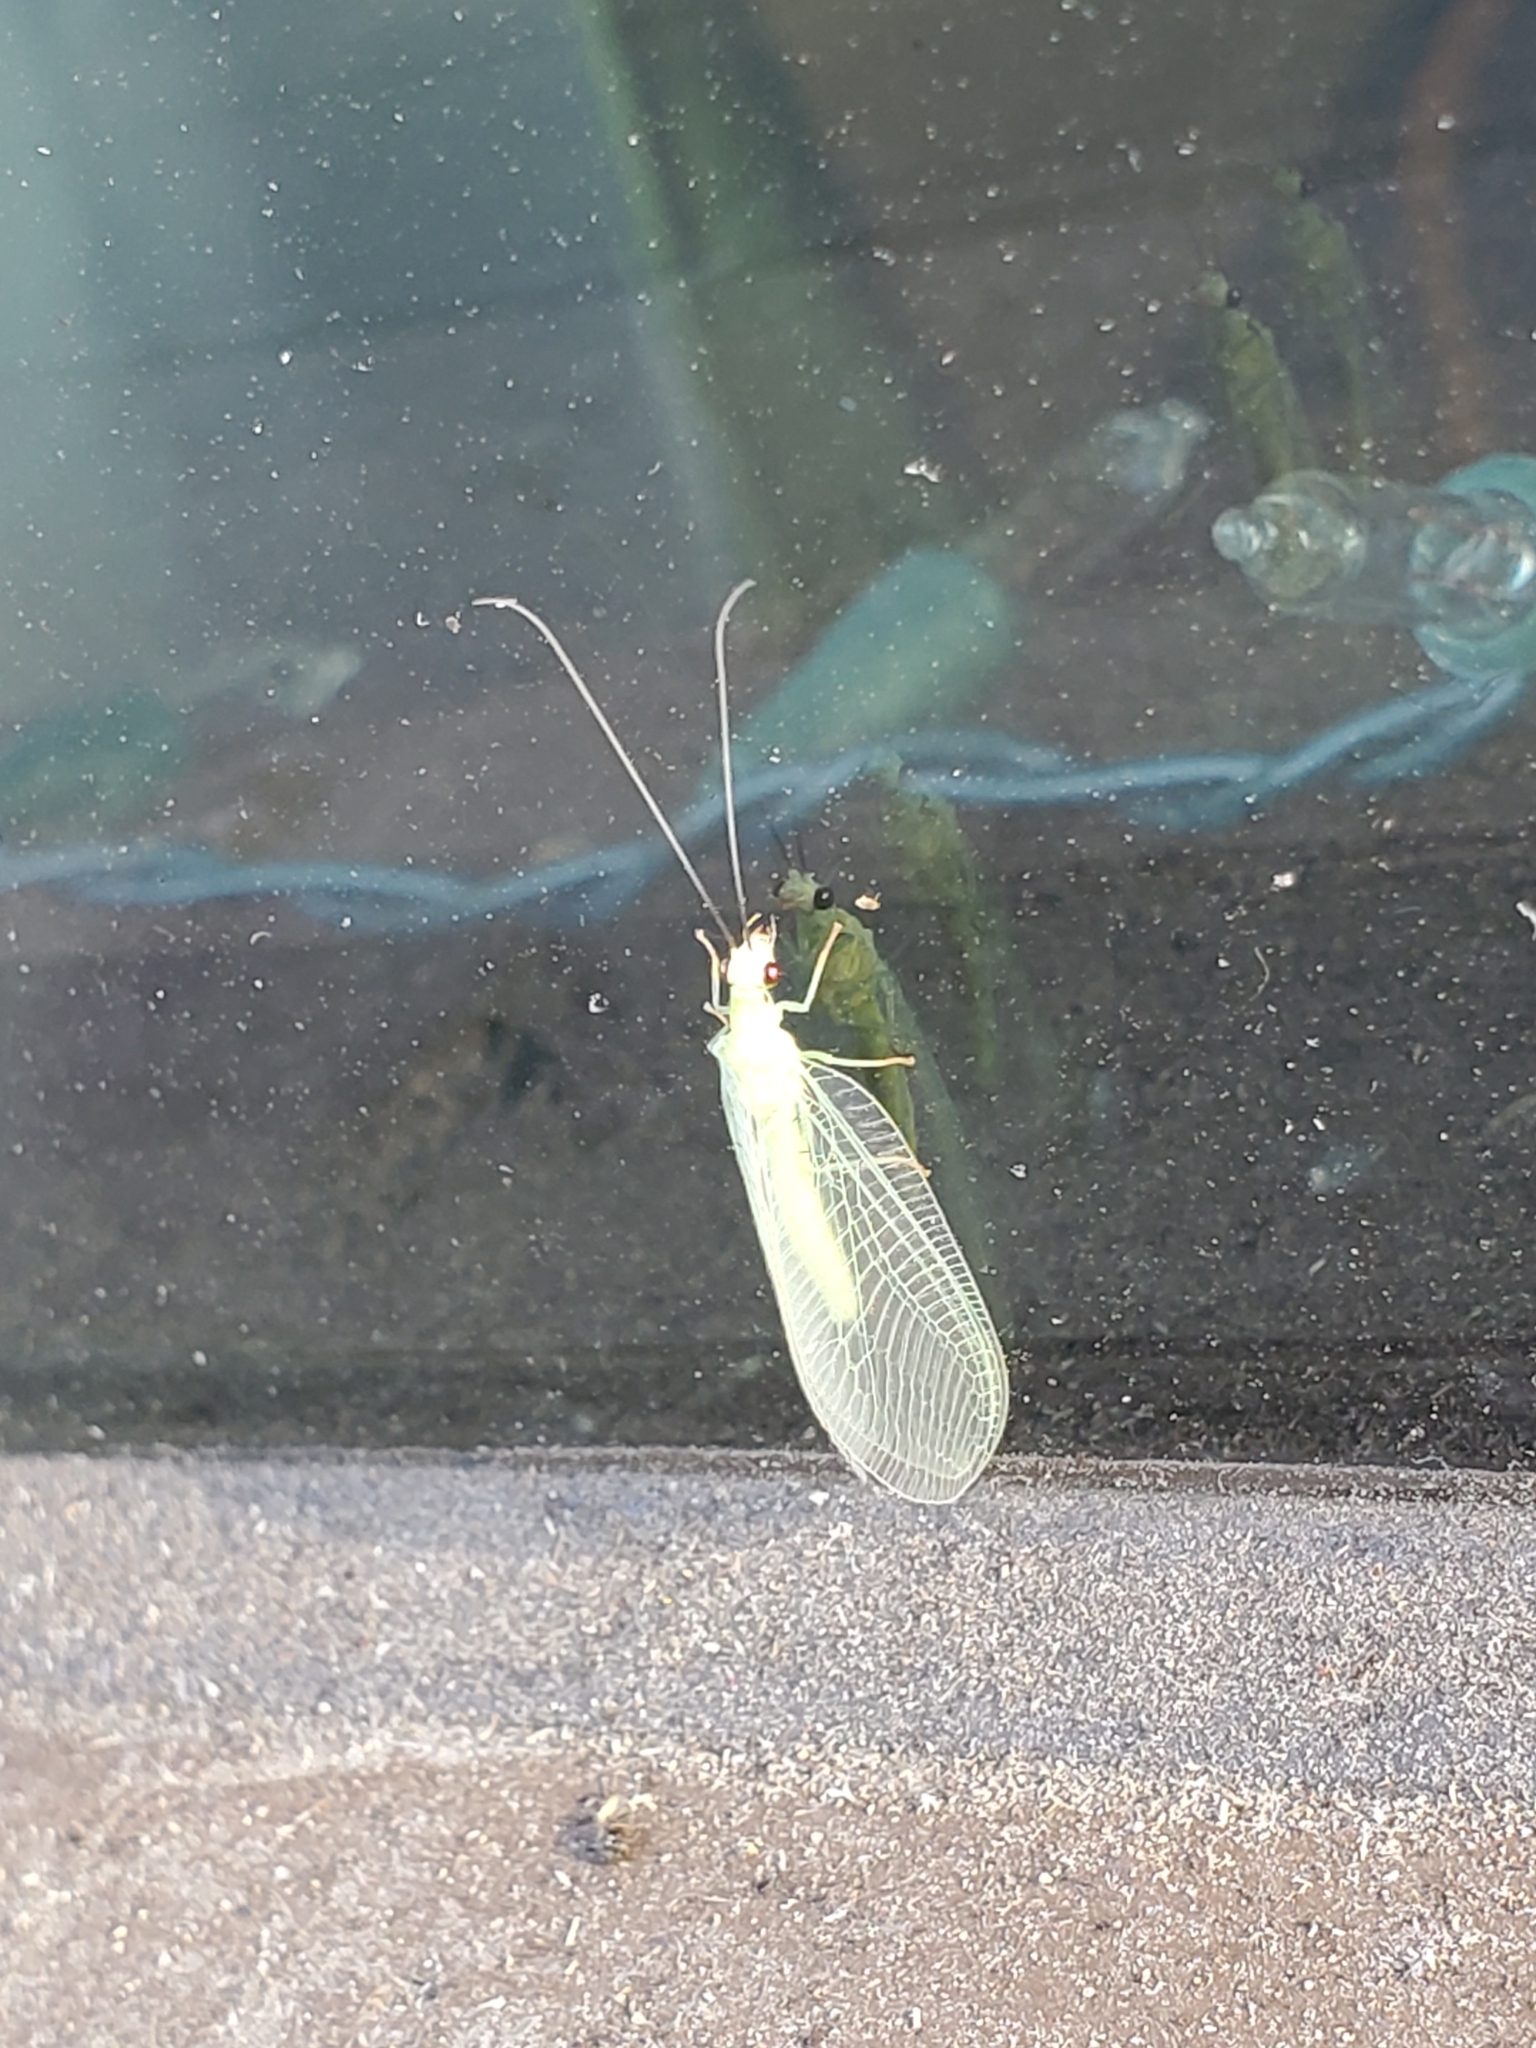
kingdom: Animalia
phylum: Arthropoda
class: Insecta
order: Neuroptera
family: Chrysopidae
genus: Chrysopa
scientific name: Chrysopa nigricornis
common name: Black-horned green lacewing
